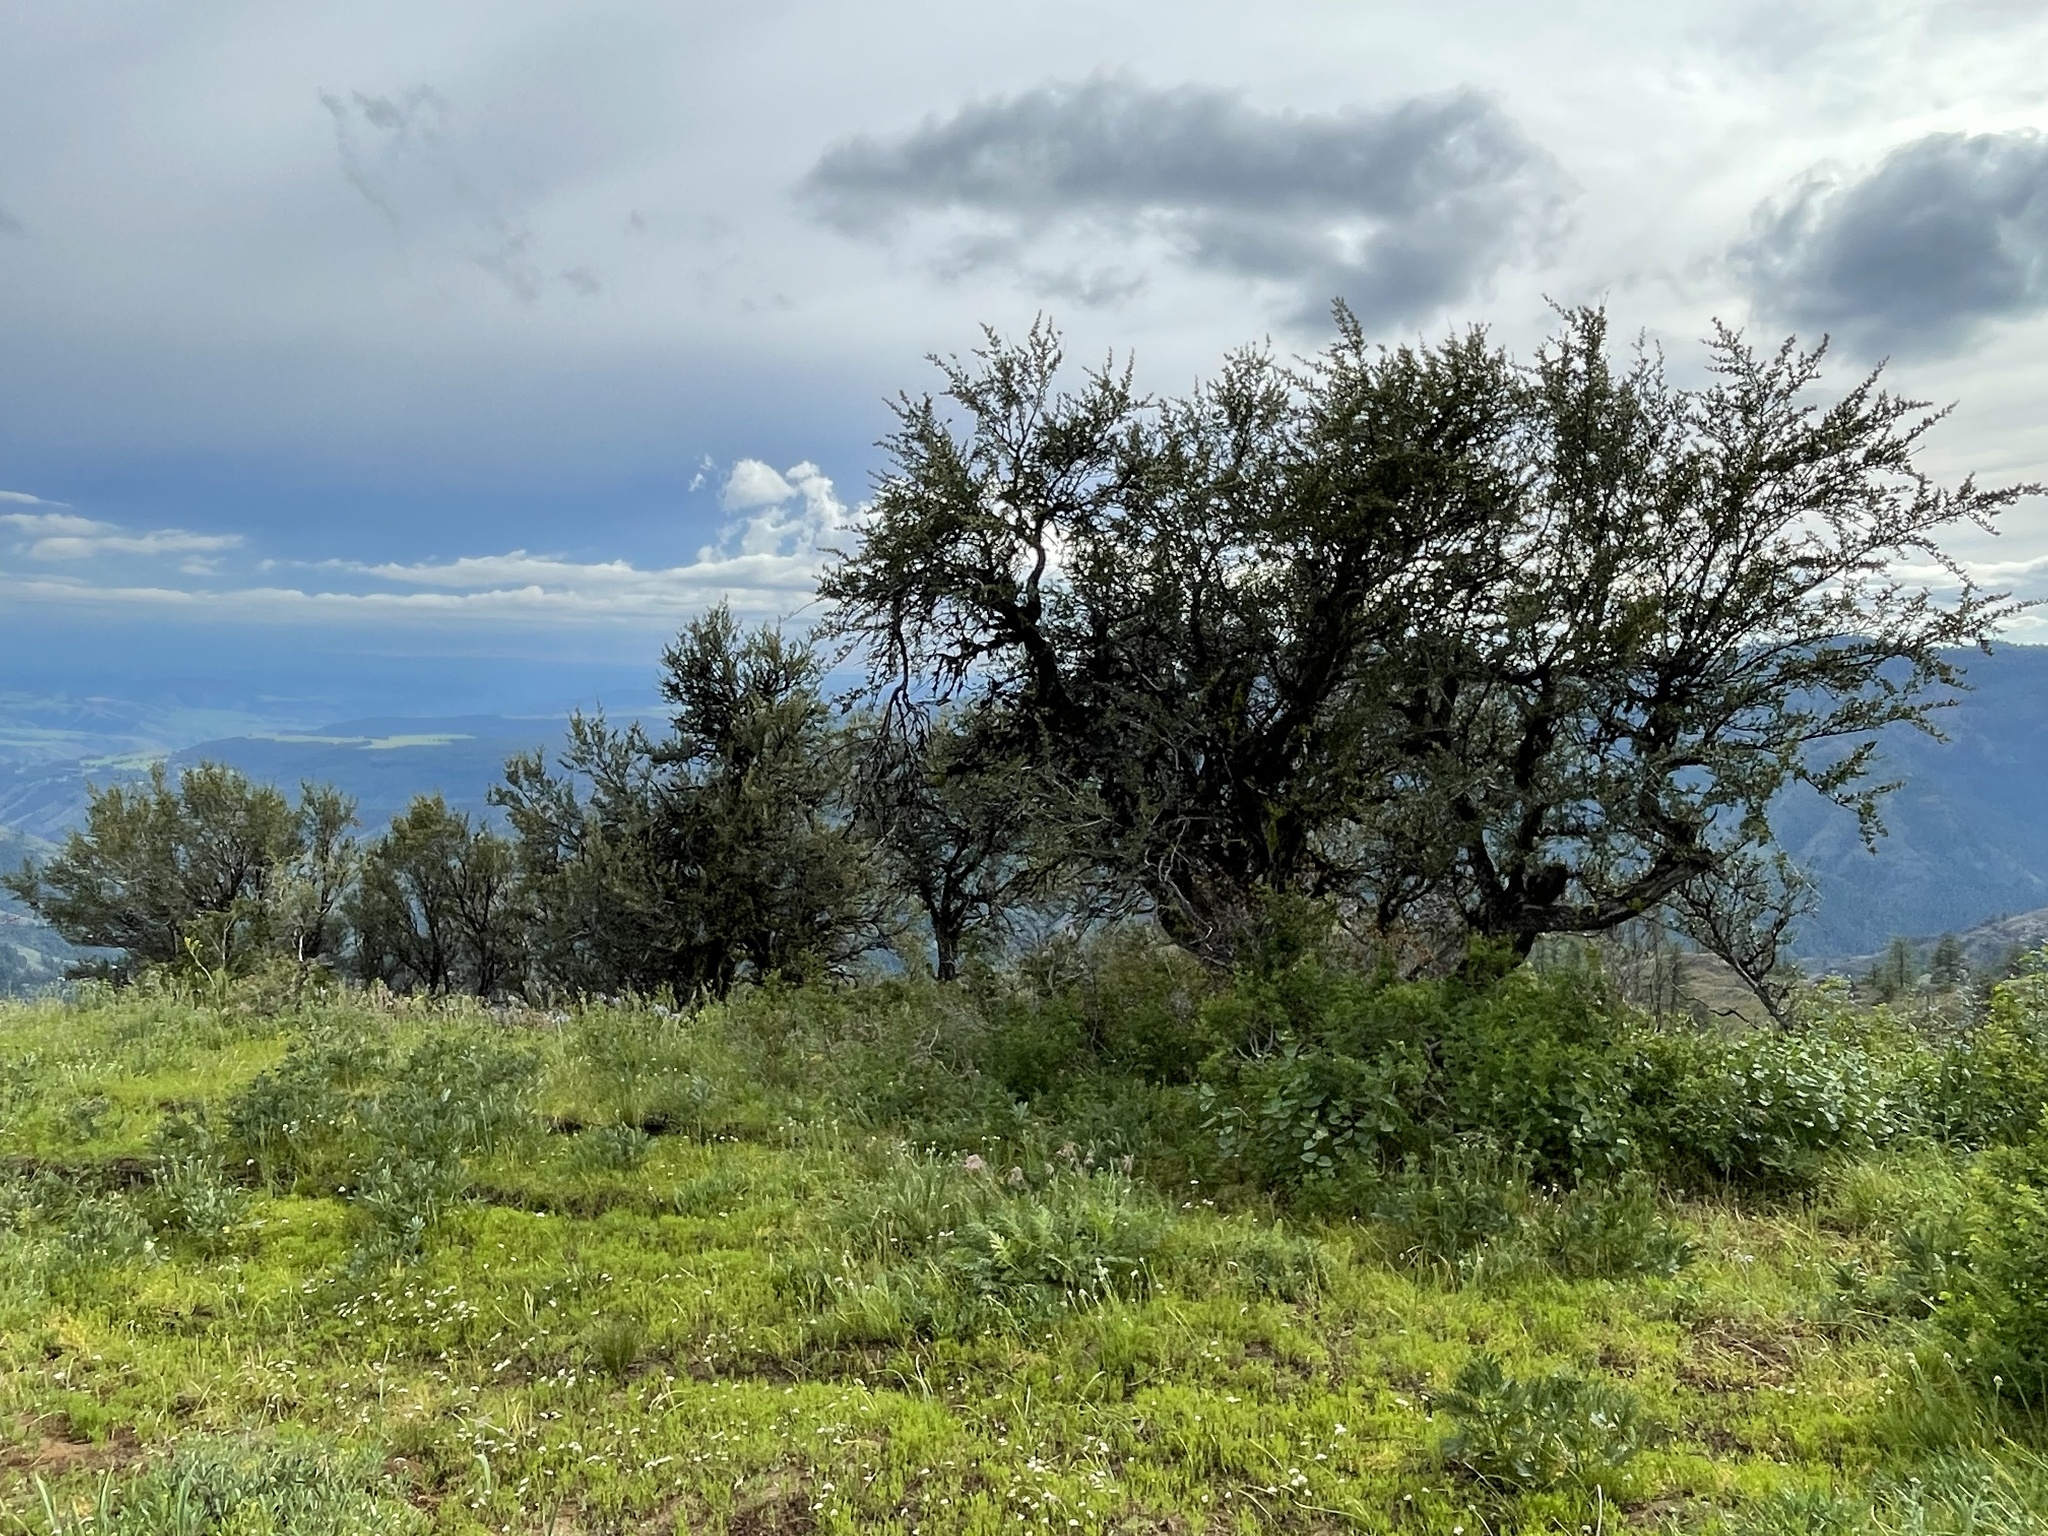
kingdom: Plantae
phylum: Tracheophyta
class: Magnoliopsida
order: Rosales
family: Rosaceae
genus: Cercocarpus
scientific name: Cercocarpus ledifolius
